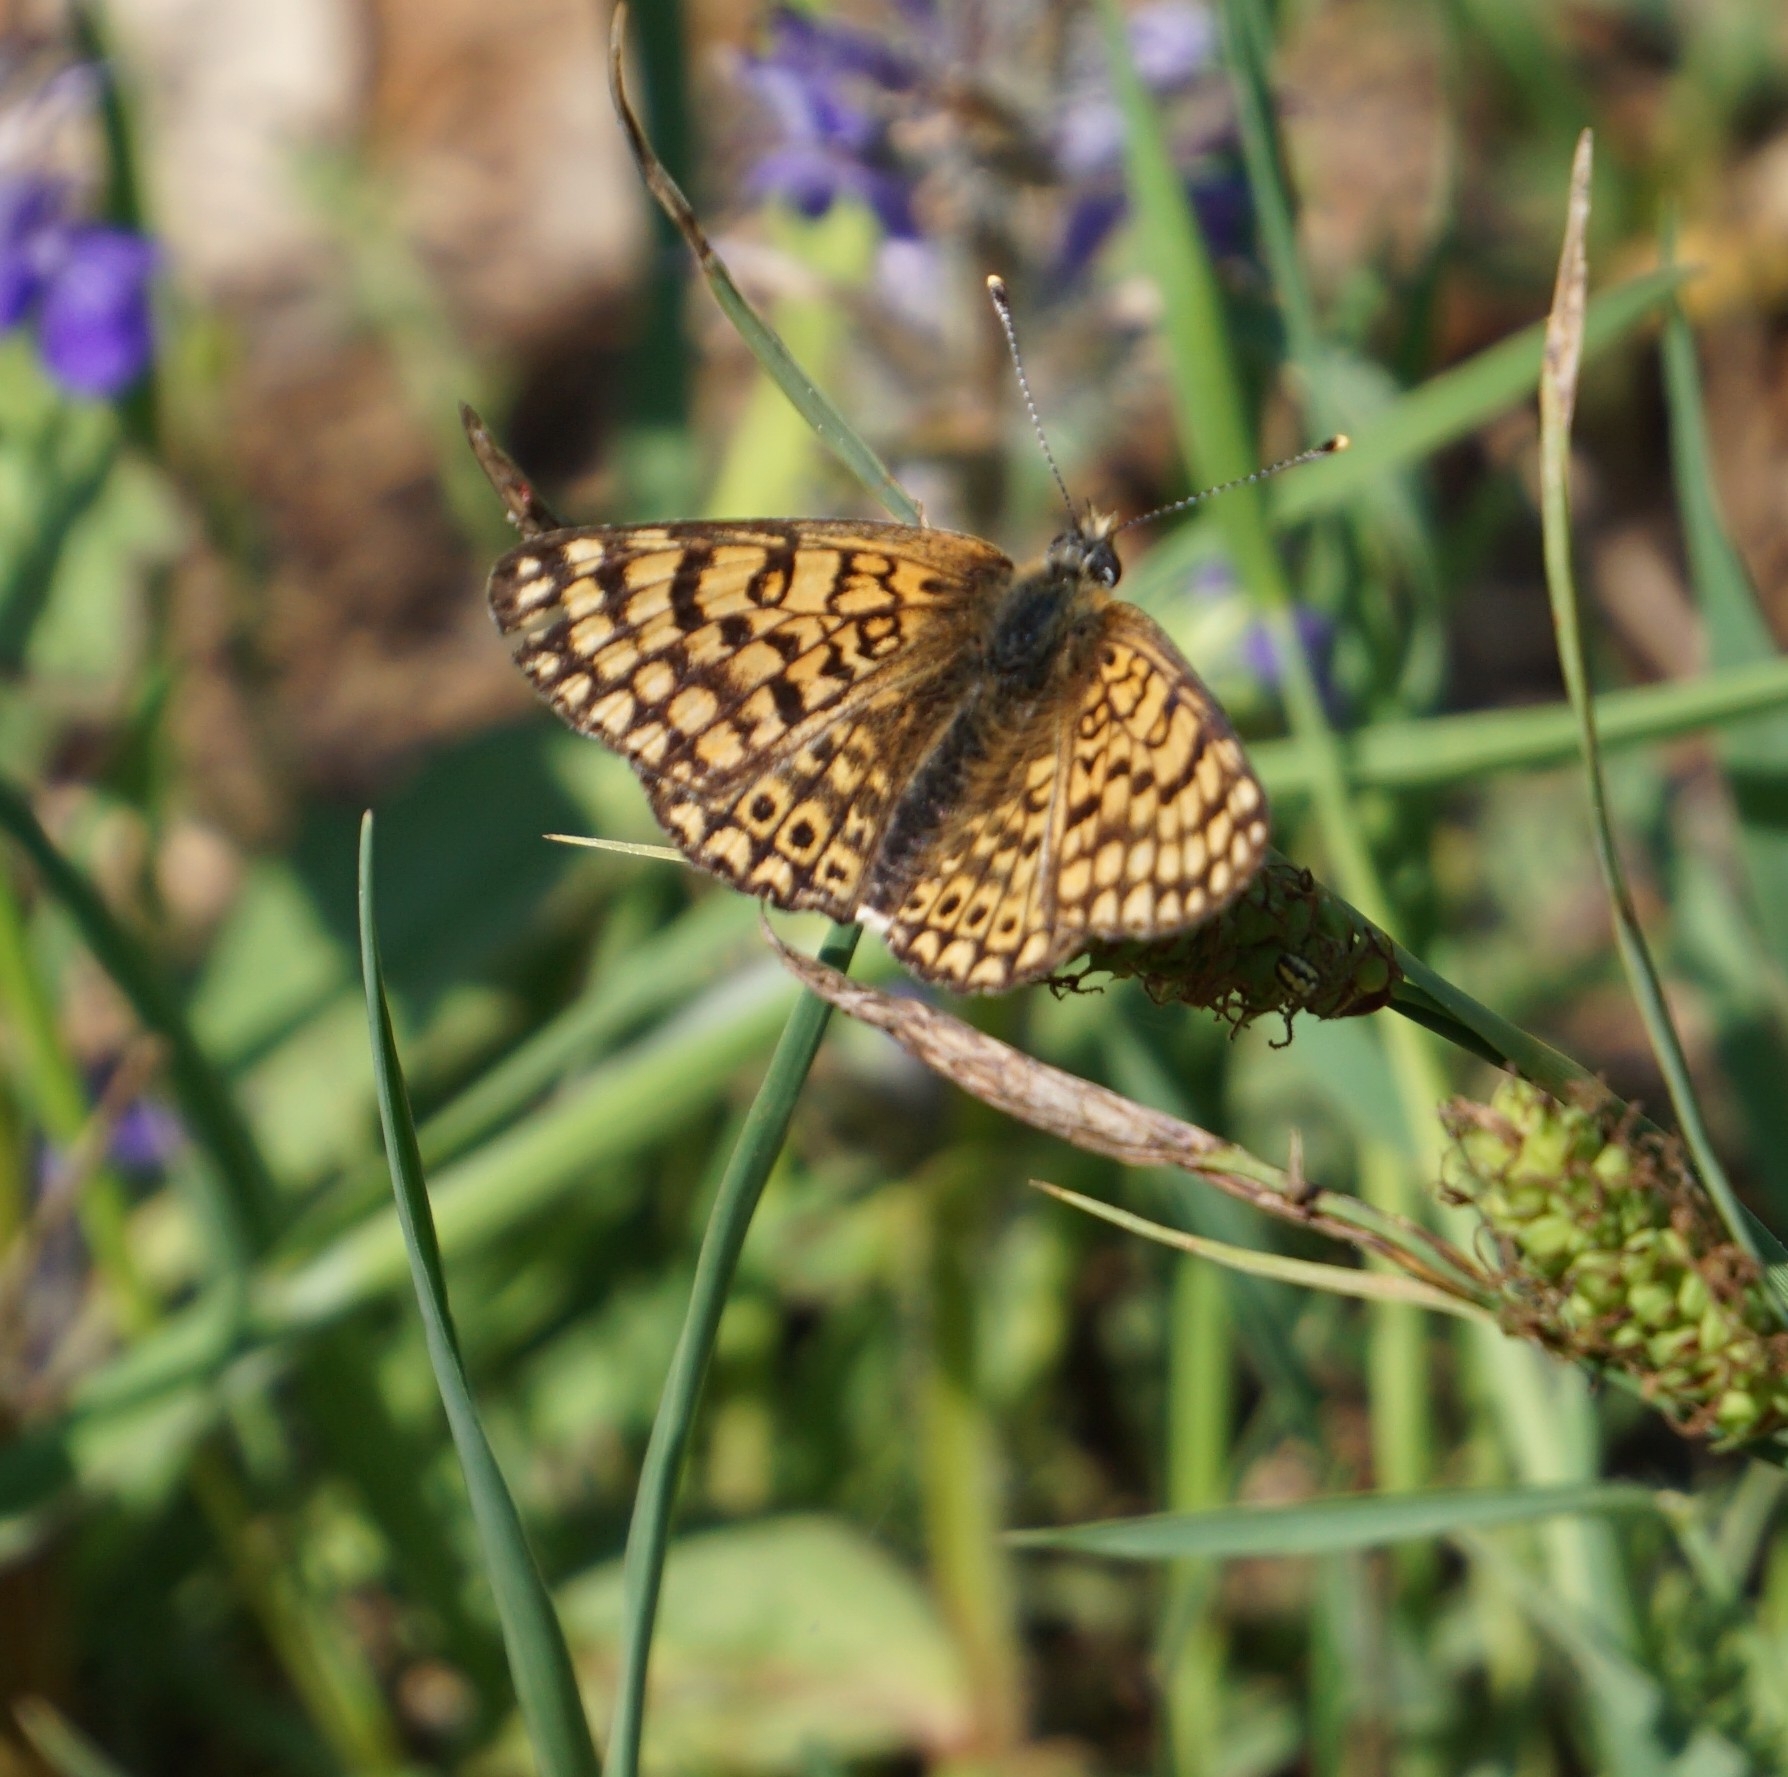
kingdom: Animalia
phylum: Arthropoda
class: Insecta
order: Lepidoptera
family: Nymphalidae
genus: Melitaea
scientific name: Melitaea cinxia
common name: Glanville fritillary
